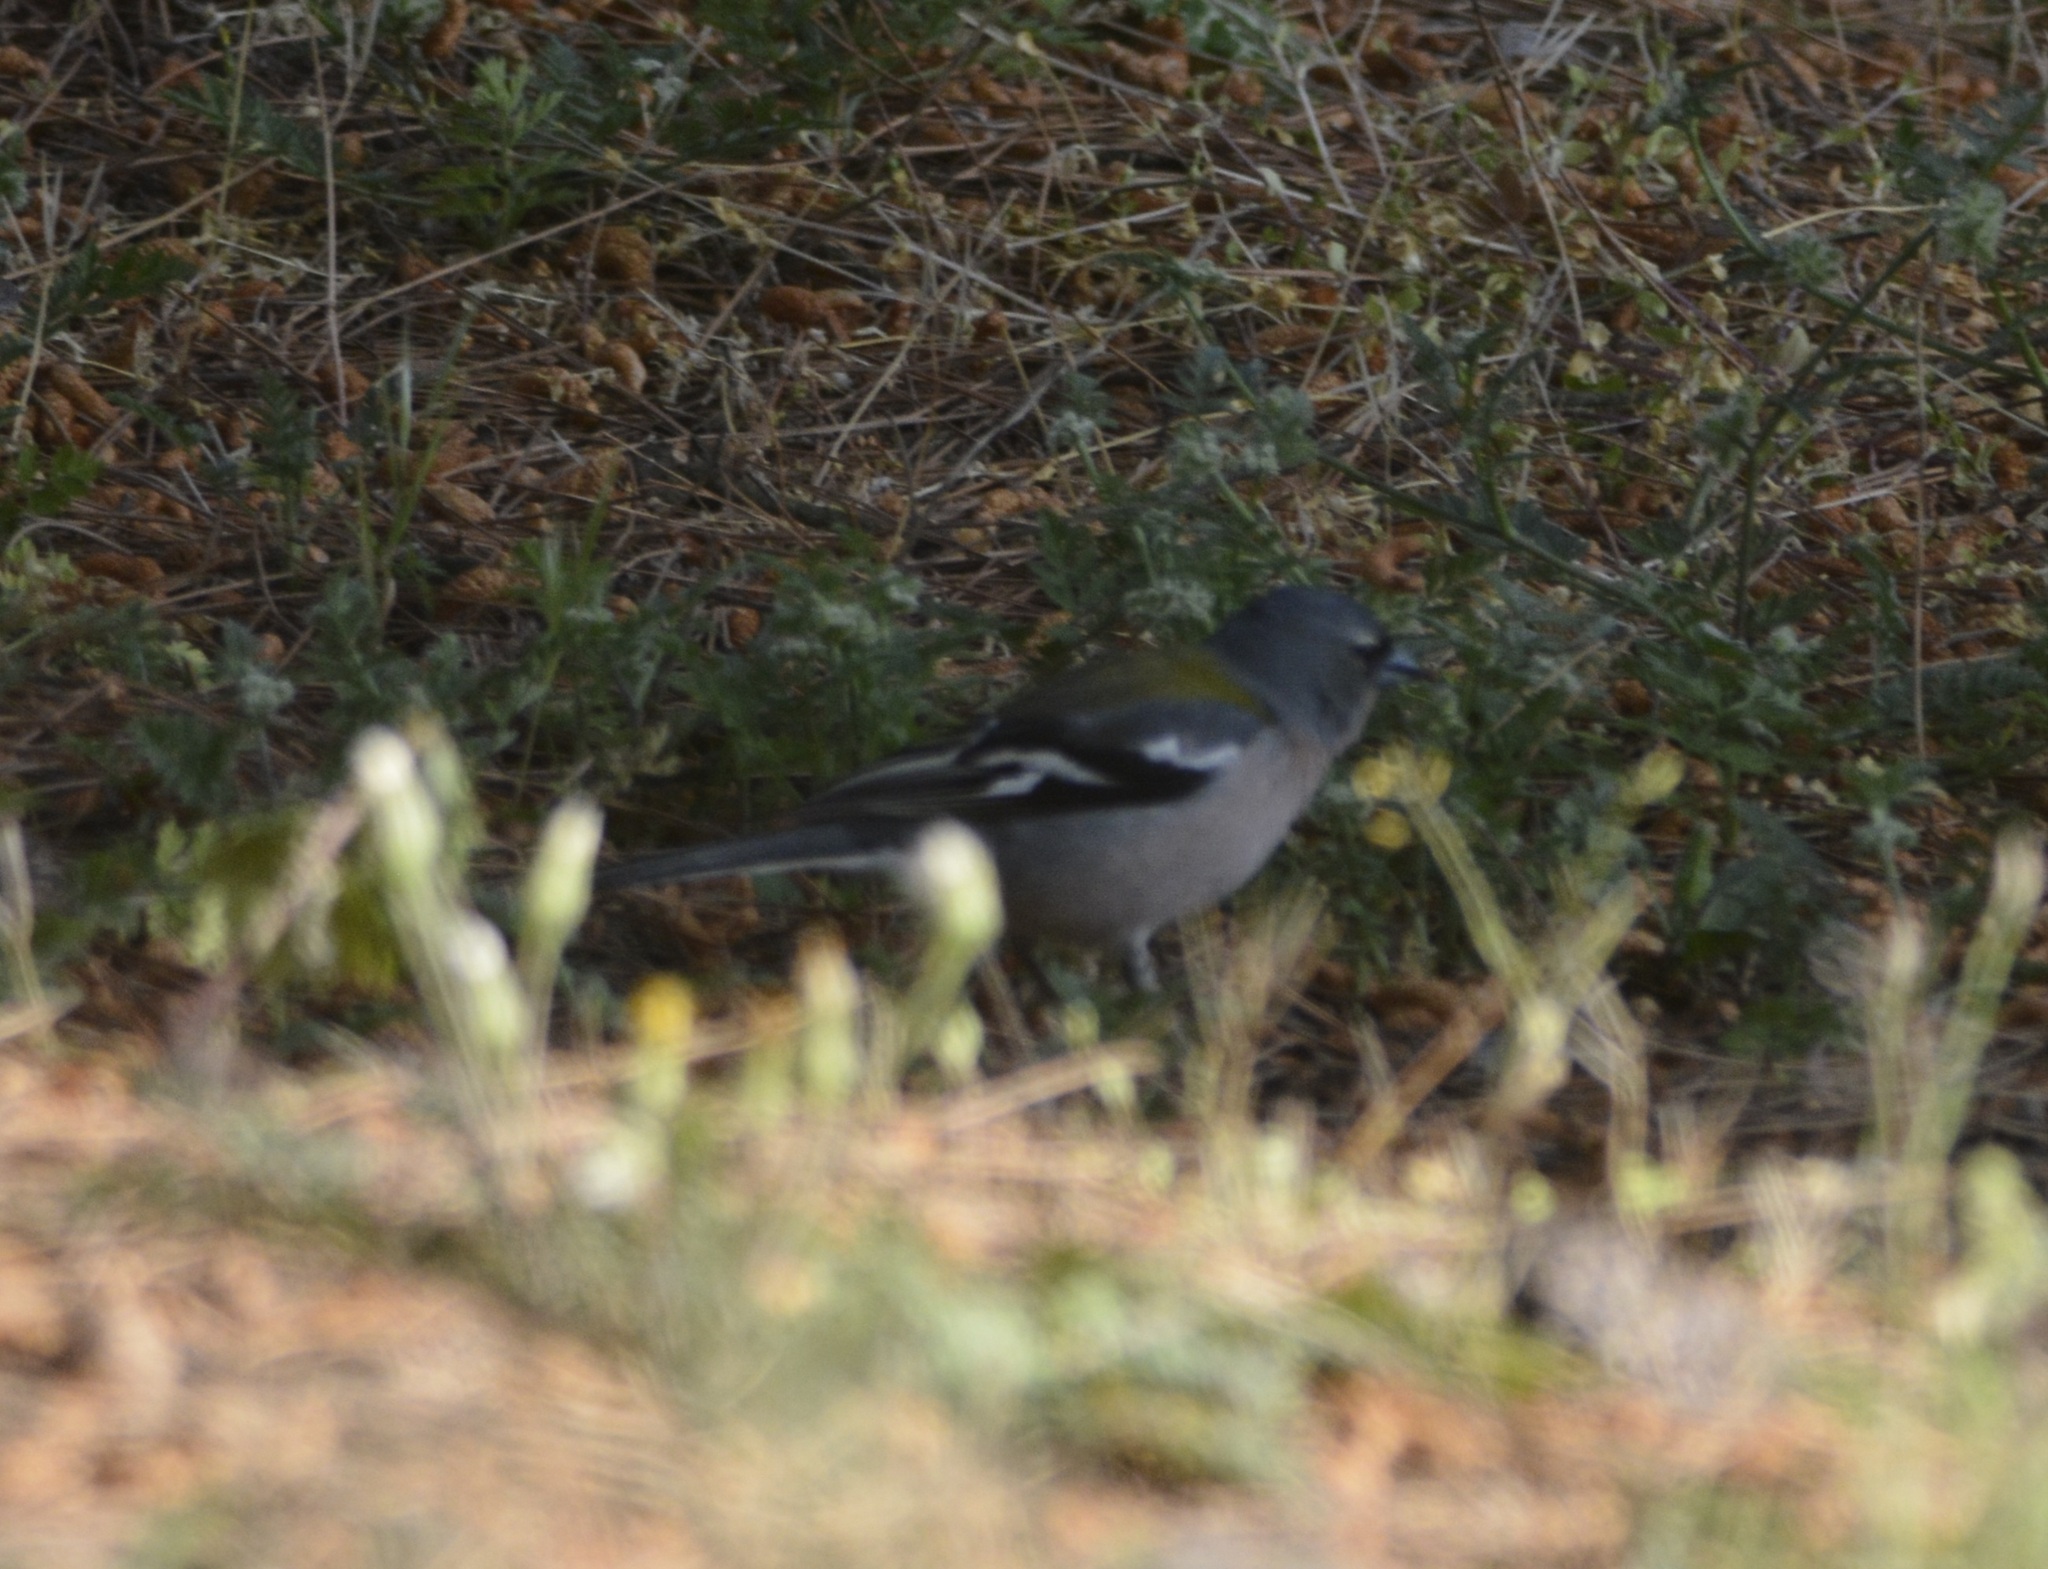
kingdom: Animalia
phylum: Chordata
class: Aves
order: Passeriformes
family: Fringillidae
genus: Fringilla
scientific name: Fringilla spodiogenys
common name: African chaffinch
